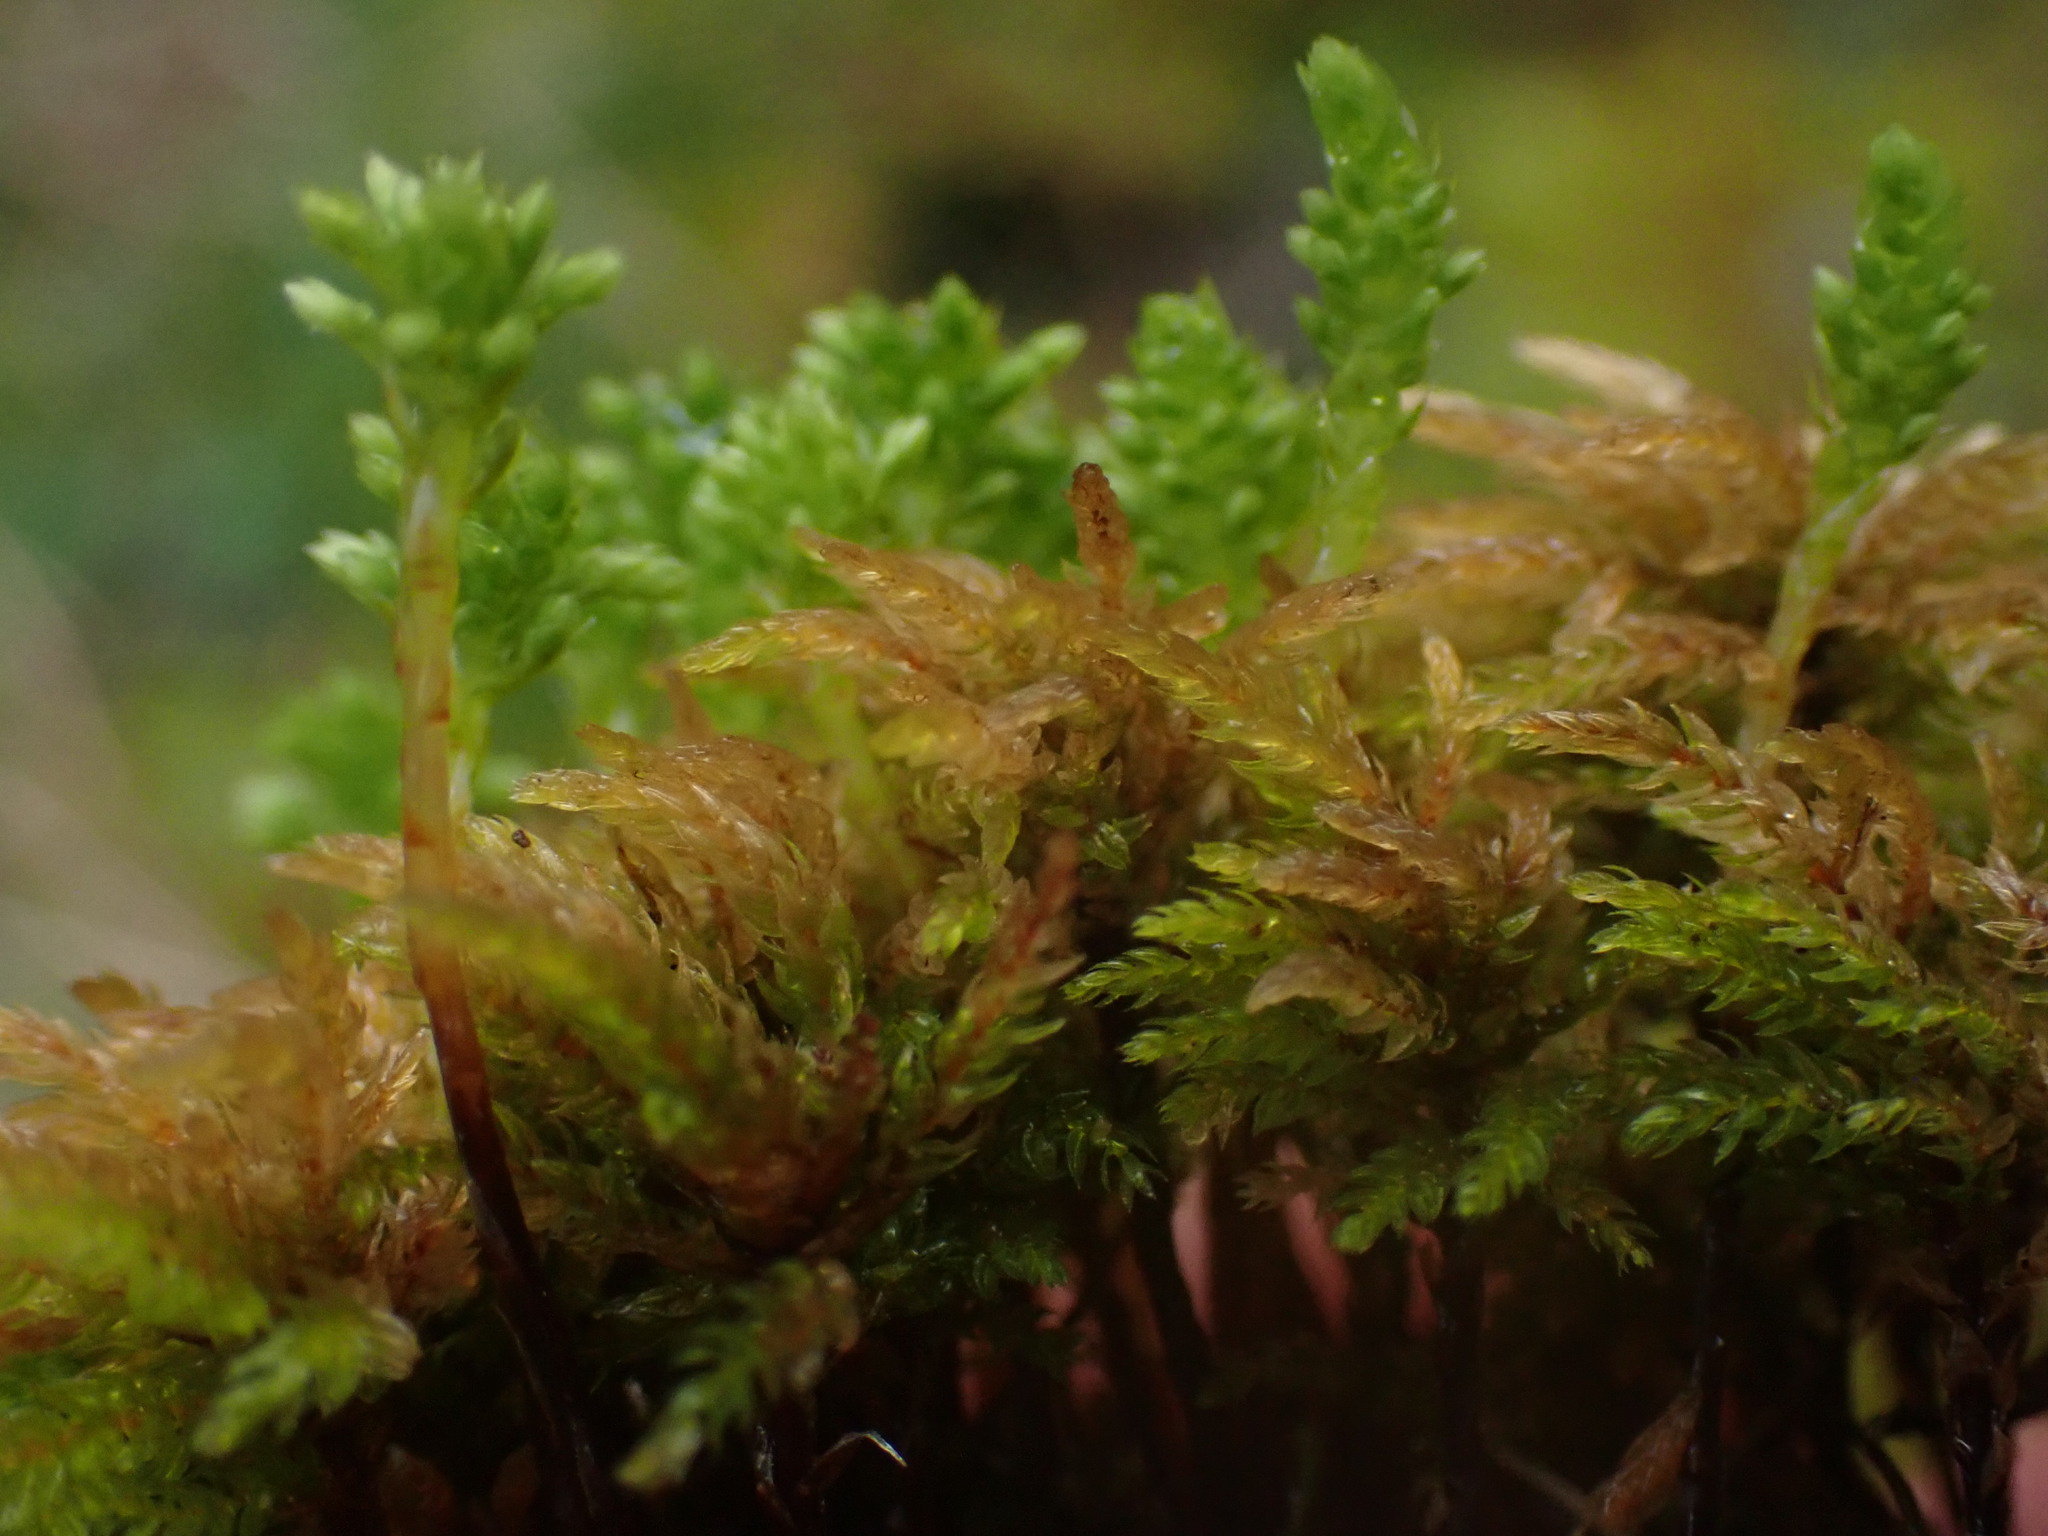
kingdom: Plantae
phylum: Bryophyta
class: Bryopsida
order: Bryales
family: Mniaceae
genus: Leucolepis
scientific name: Leucolepis acanthoneura
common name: Leucolepis umbrella moss
